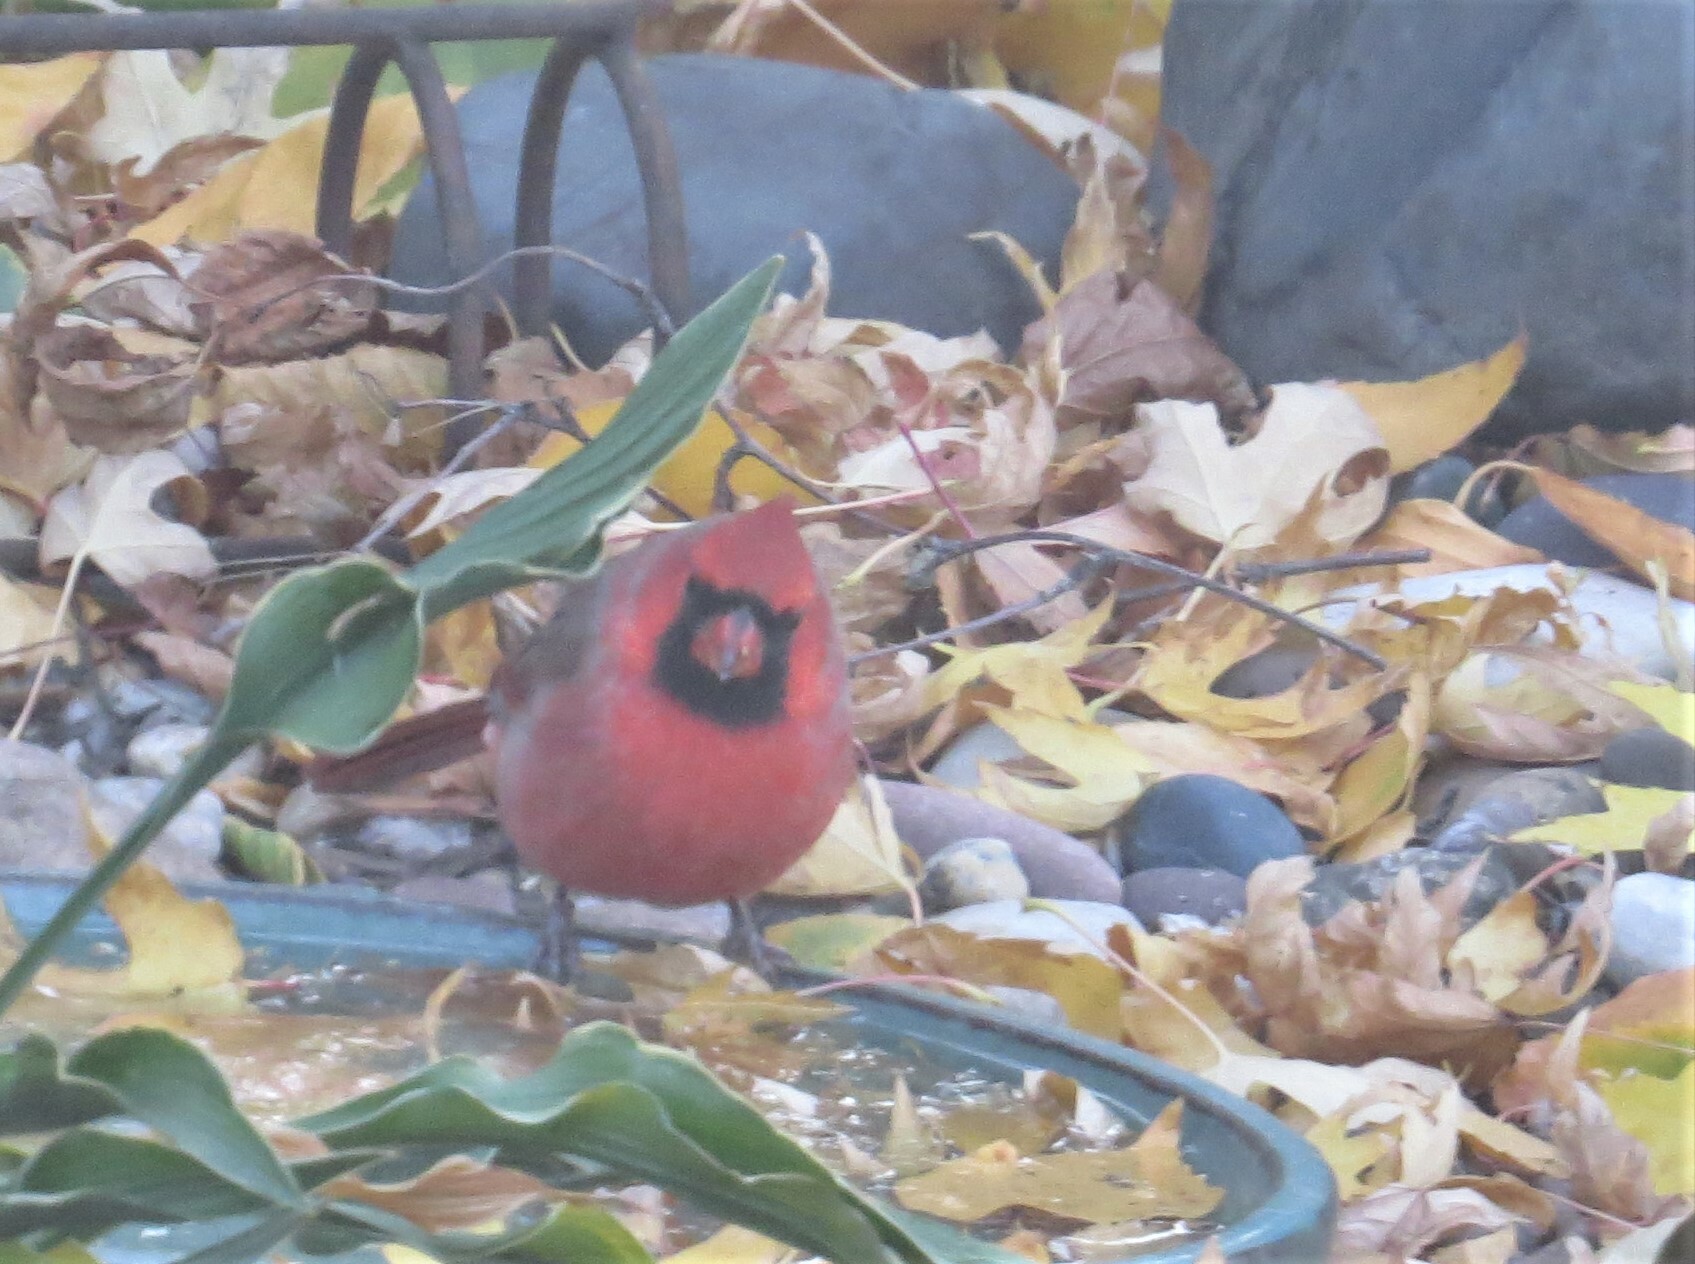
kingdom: Animalia
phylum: Chordata
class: Aves
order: Passeriformes
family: Cardinalidae
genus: Cardinalis
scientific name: Cardinalis cardinalis
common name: Northern cardinal
